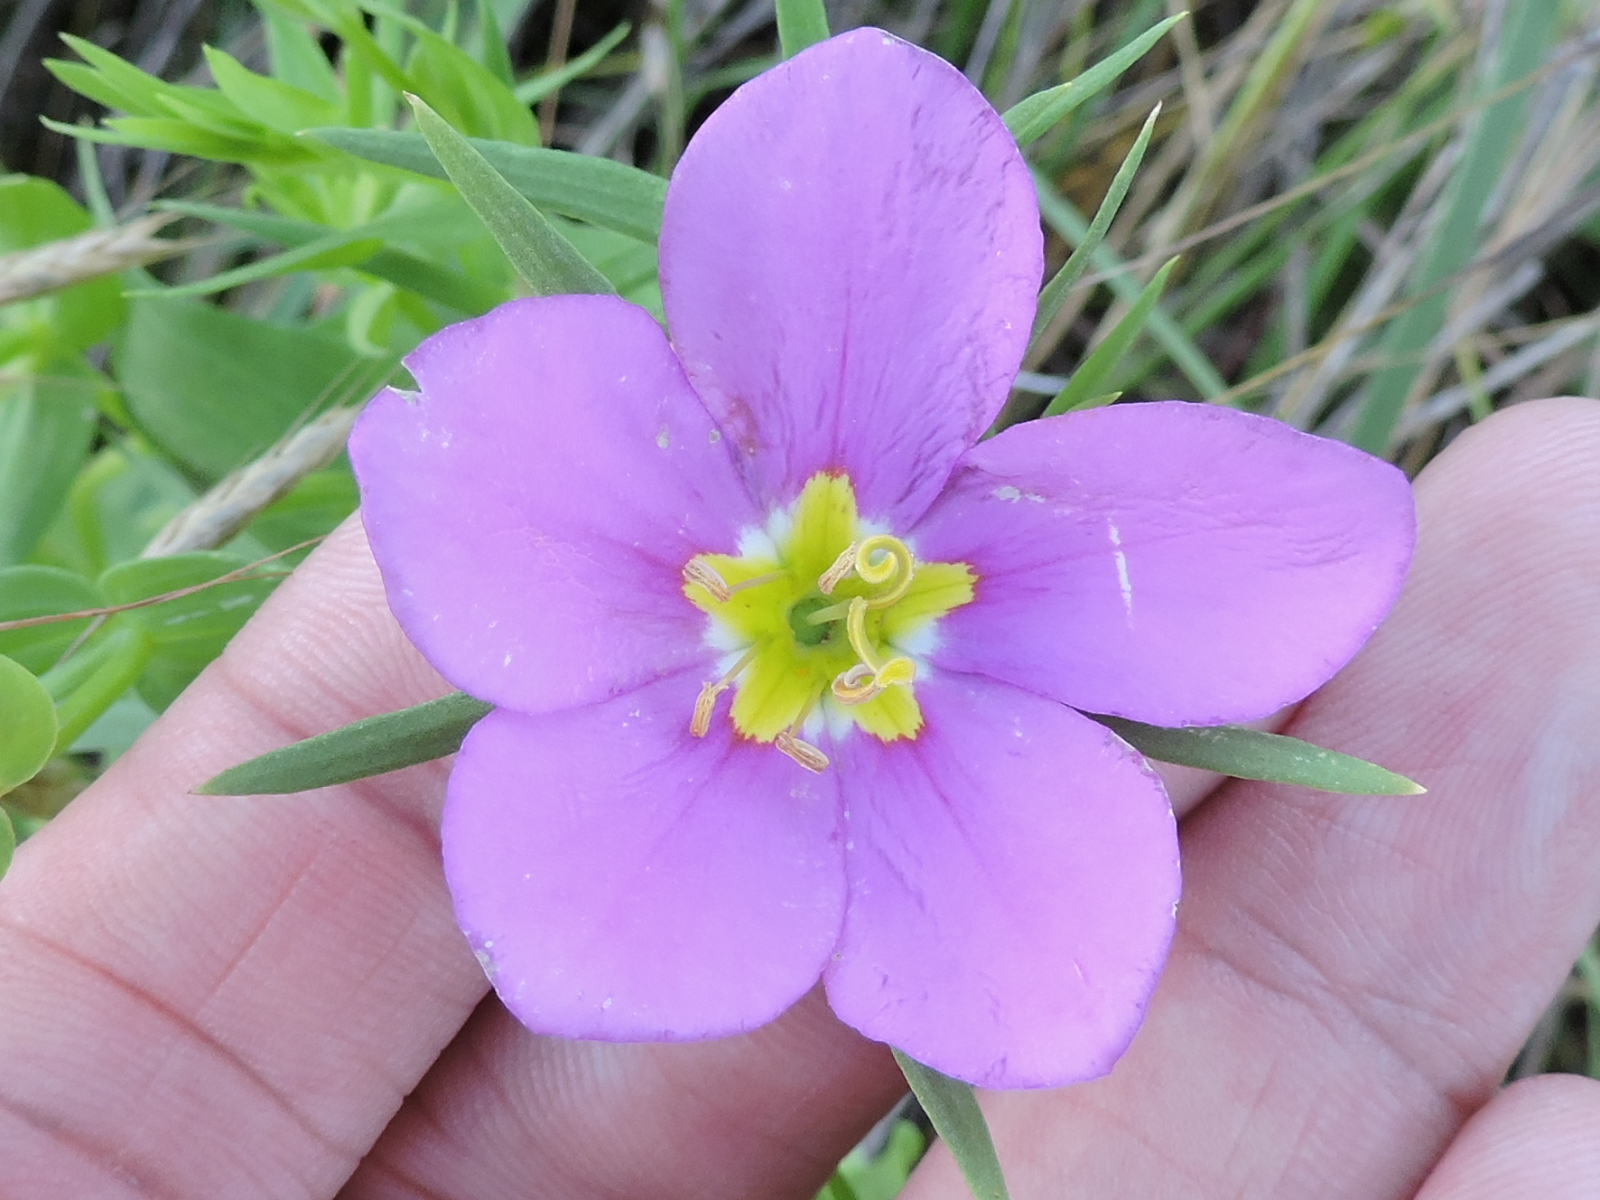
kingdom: Plantae
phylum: Tracheophyta
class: Magnoliopsida
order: Gentianales
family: Gentianaceae
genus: Sabatia
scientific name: Sabatia campestris
